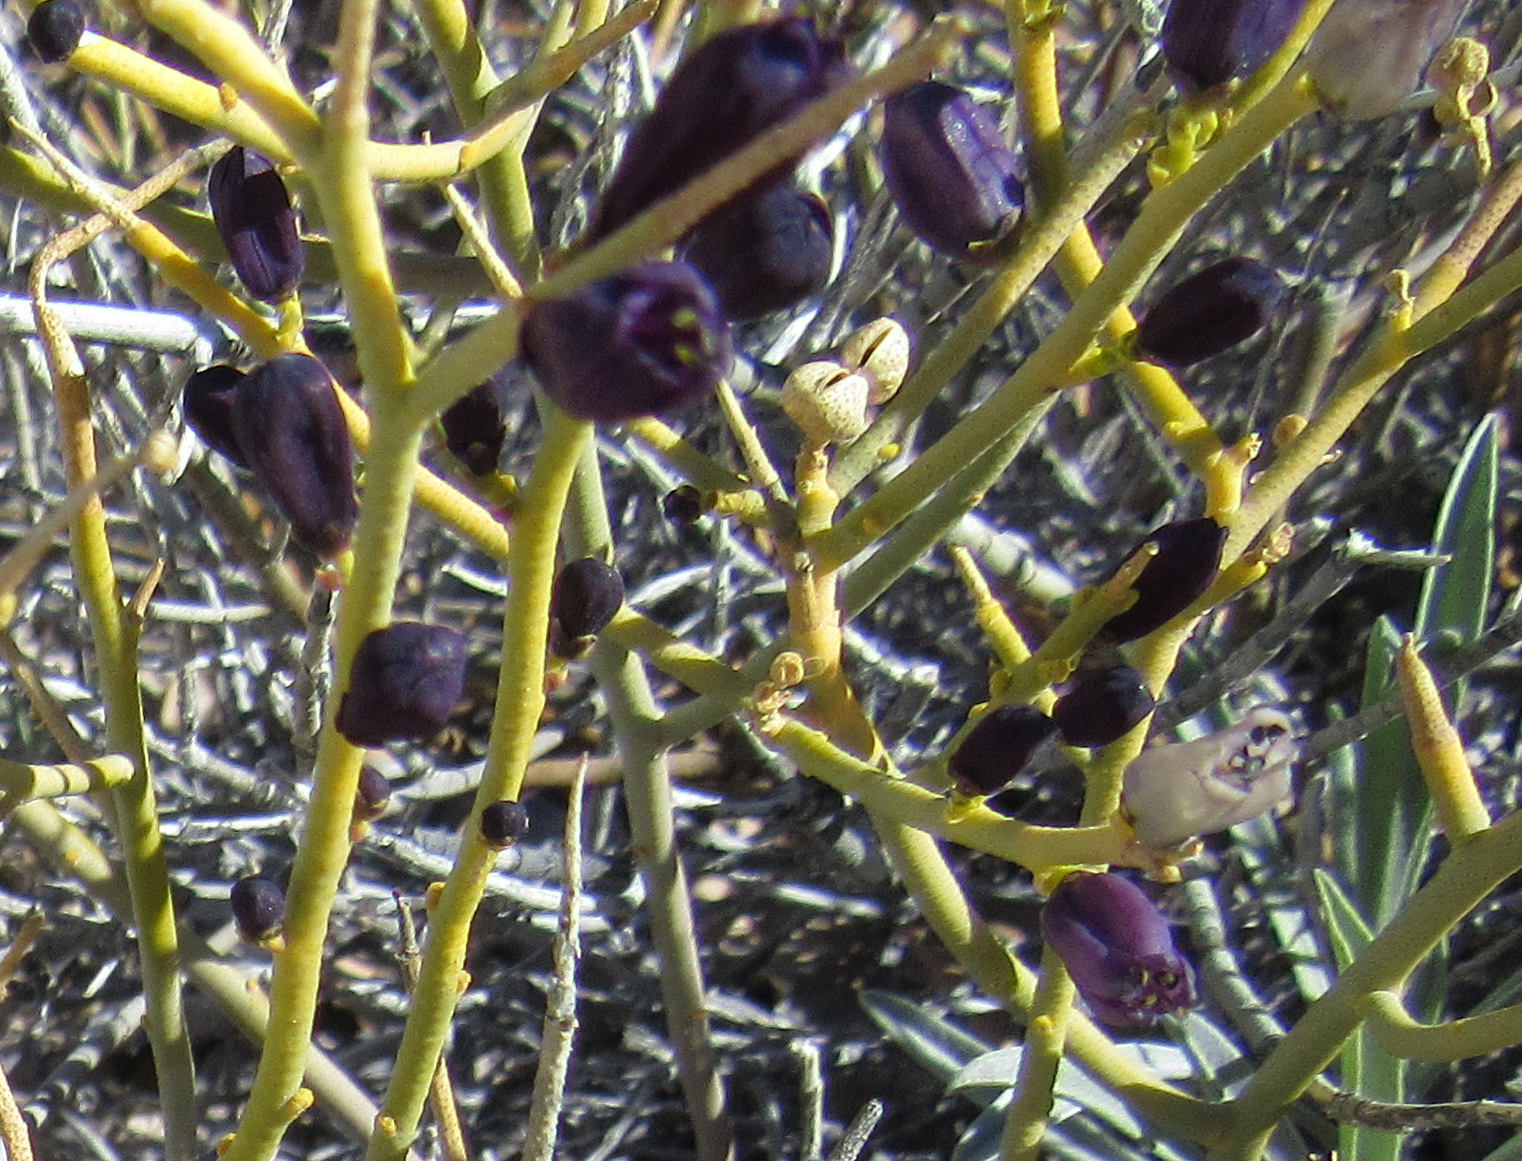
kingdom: Plantae
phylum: Tracheophyta
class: Magnoliopsida
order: Sapindales
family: Rutaceae
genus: Thamnosma
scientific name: Thamnosma montana
